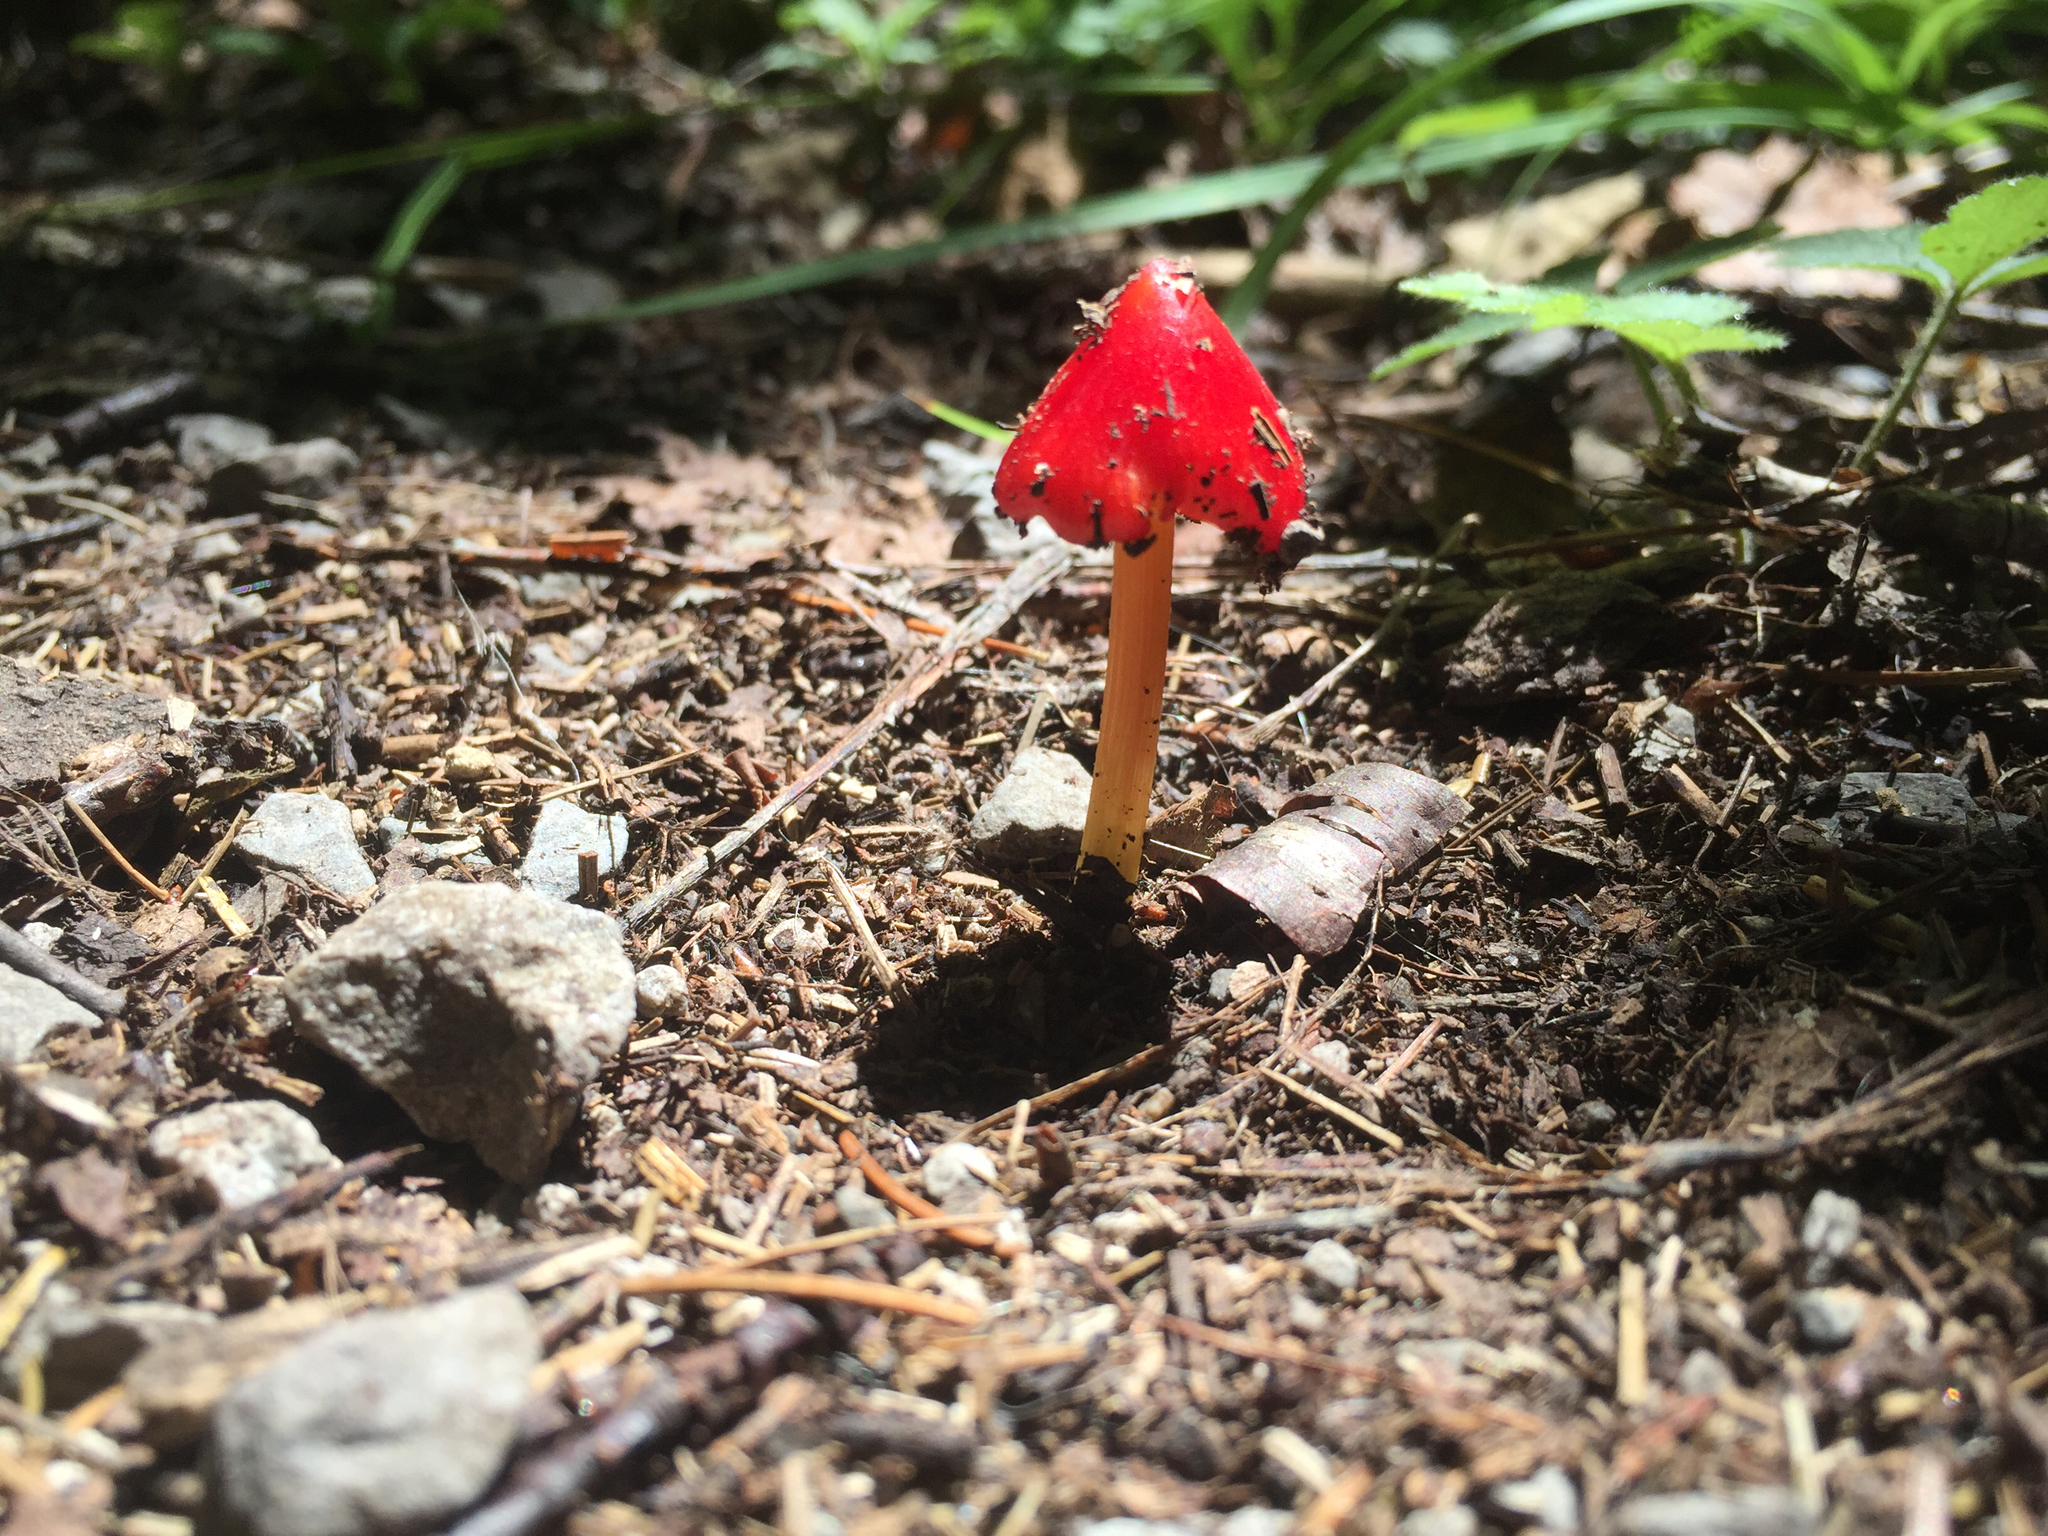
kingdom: Fungi
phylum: Basidiomycota
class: Agaricomycetes
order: Agaricales
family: Hygrophoraceae
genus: Hygrocybe
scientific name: Hygrocybe conica
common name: Blackening wax-cap
